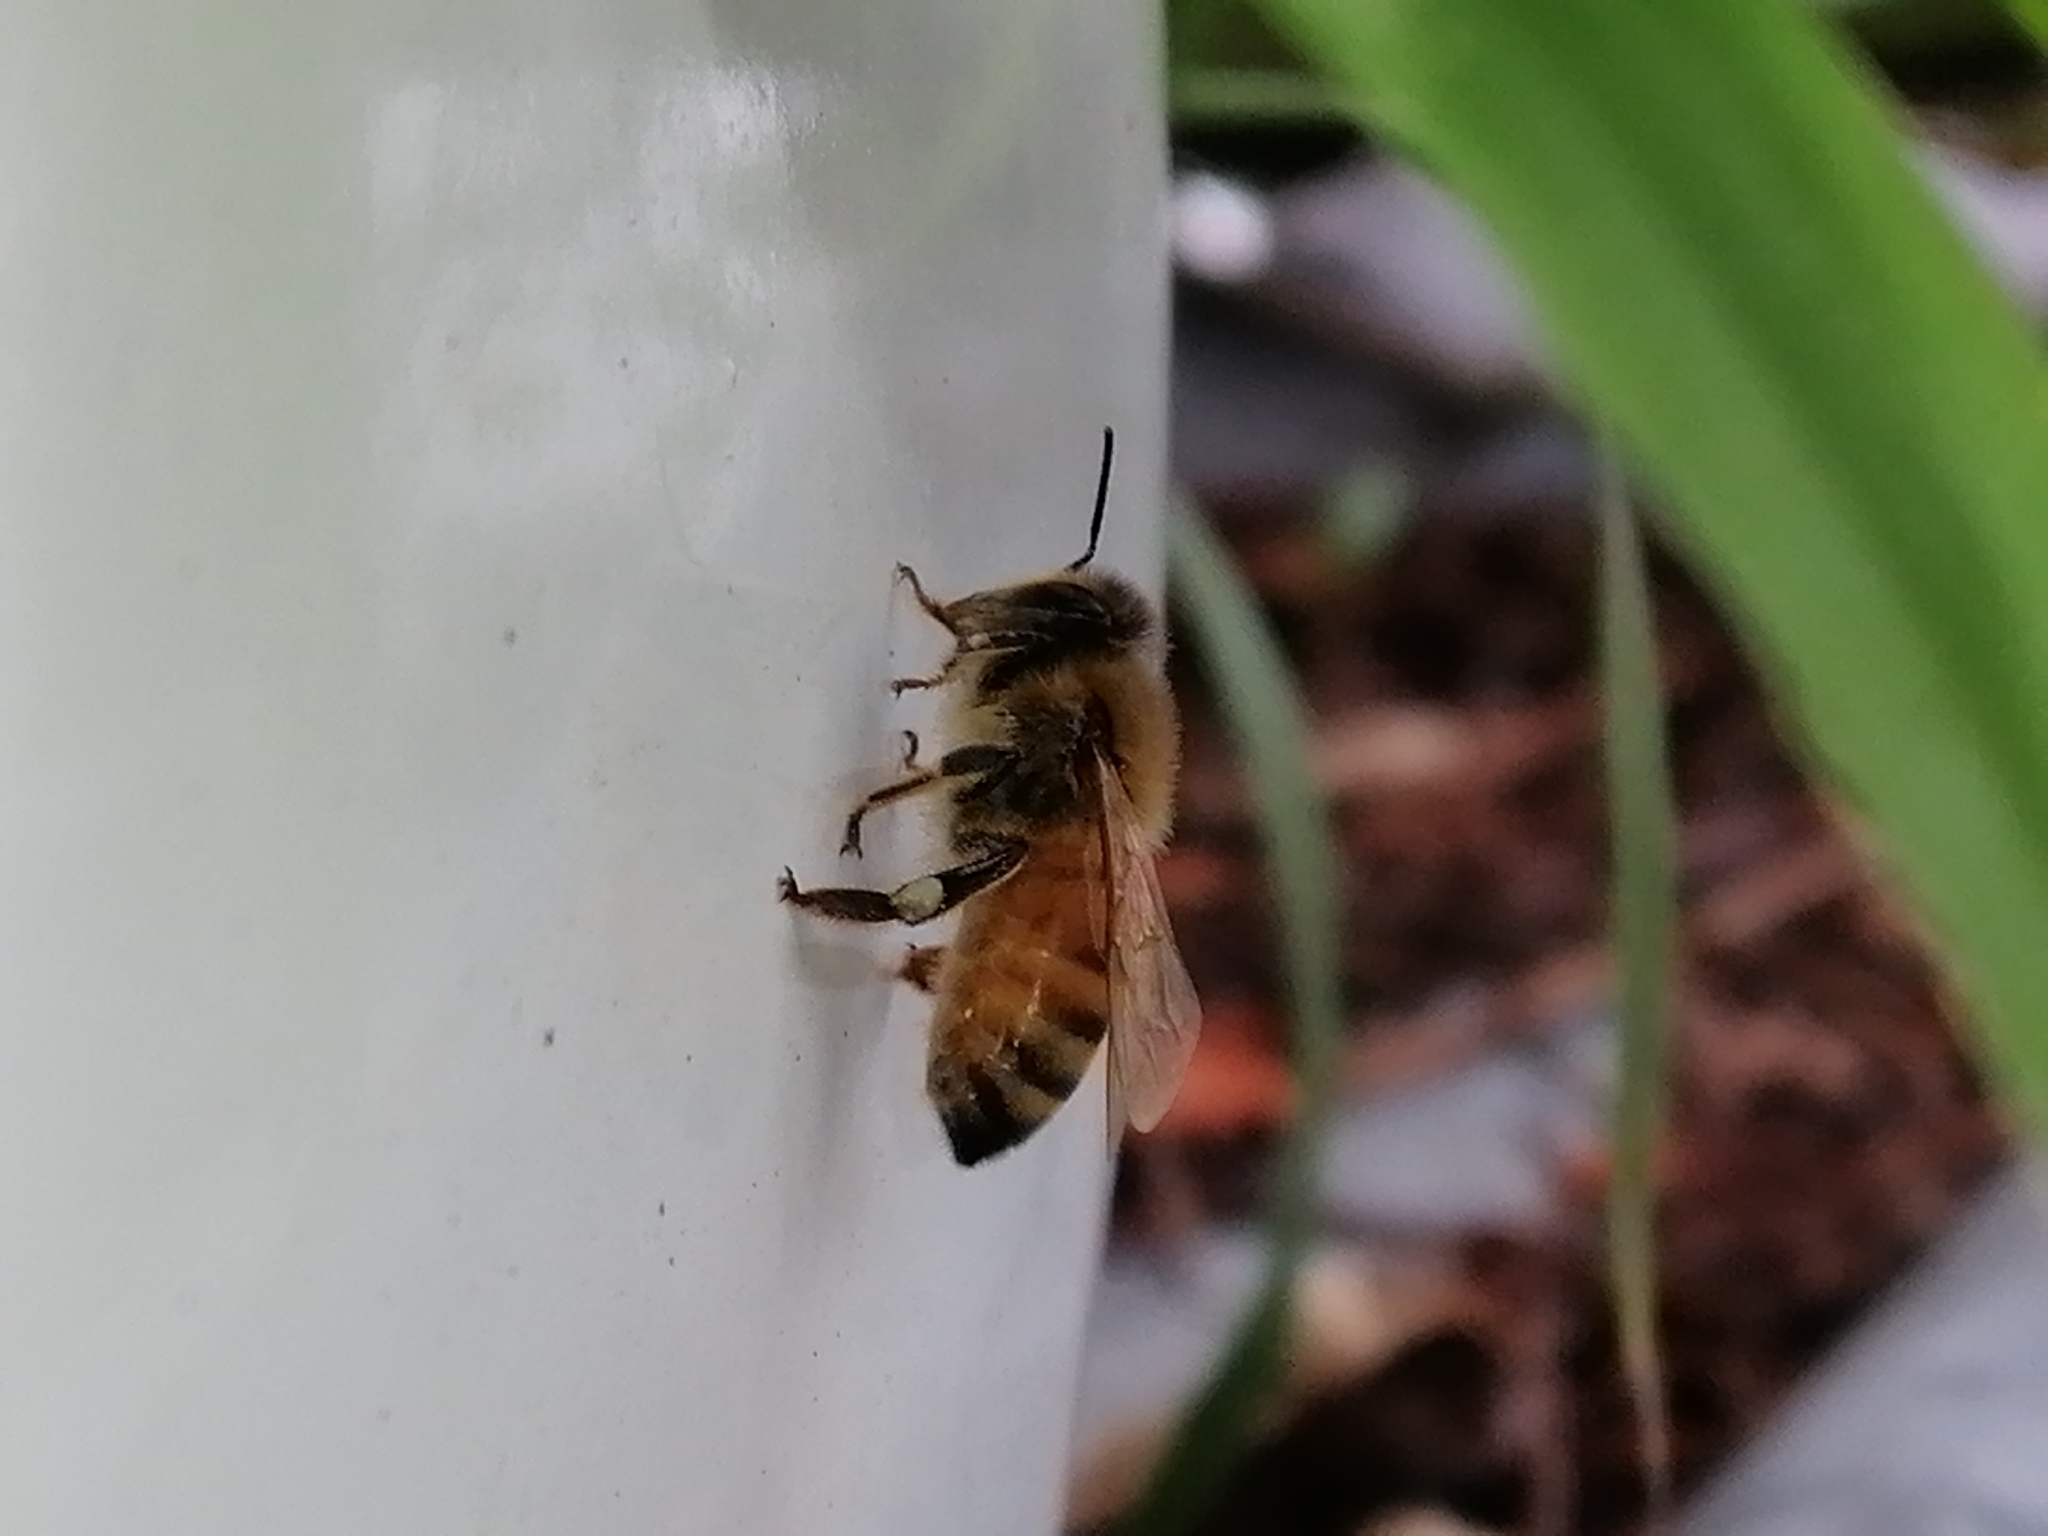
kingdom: Animalia
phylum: Arthropoda
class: Insecta
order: Hymenoptera
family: Apidae
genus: Apis
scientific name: Apis mellifera
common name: Honey bee
